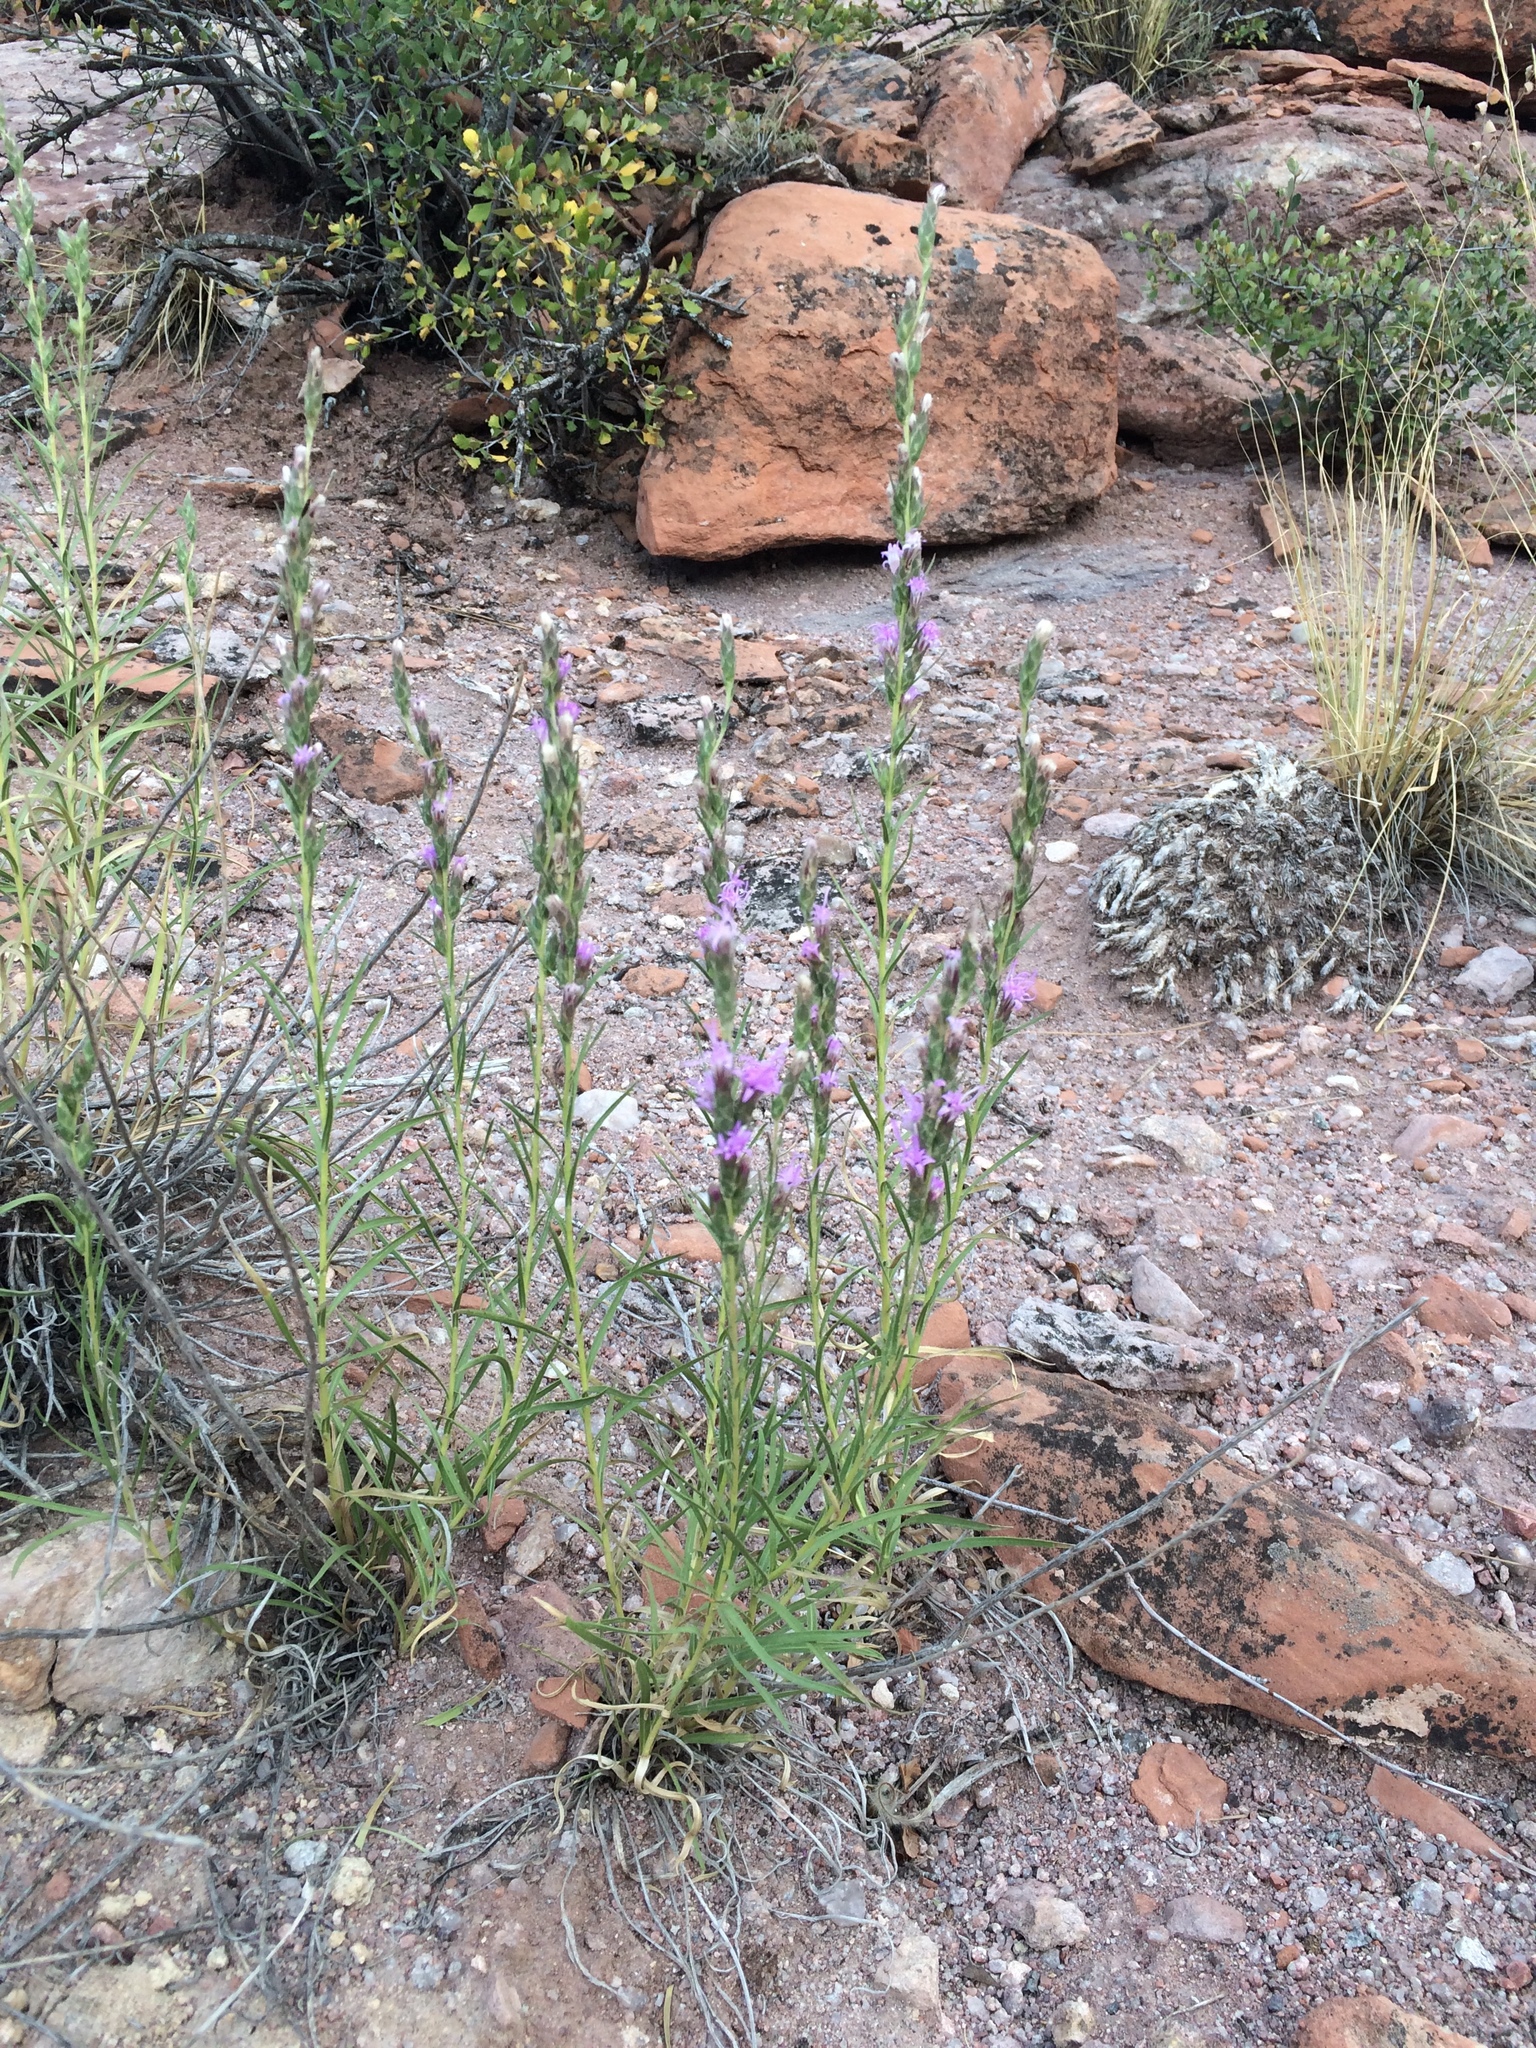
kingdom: Plantae
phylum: Tracheophyta
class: Magnoliopsida
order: Asterales
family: Asteraceae
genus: Liatris
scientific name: Liatris punctata
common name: Dotted gayfeather
